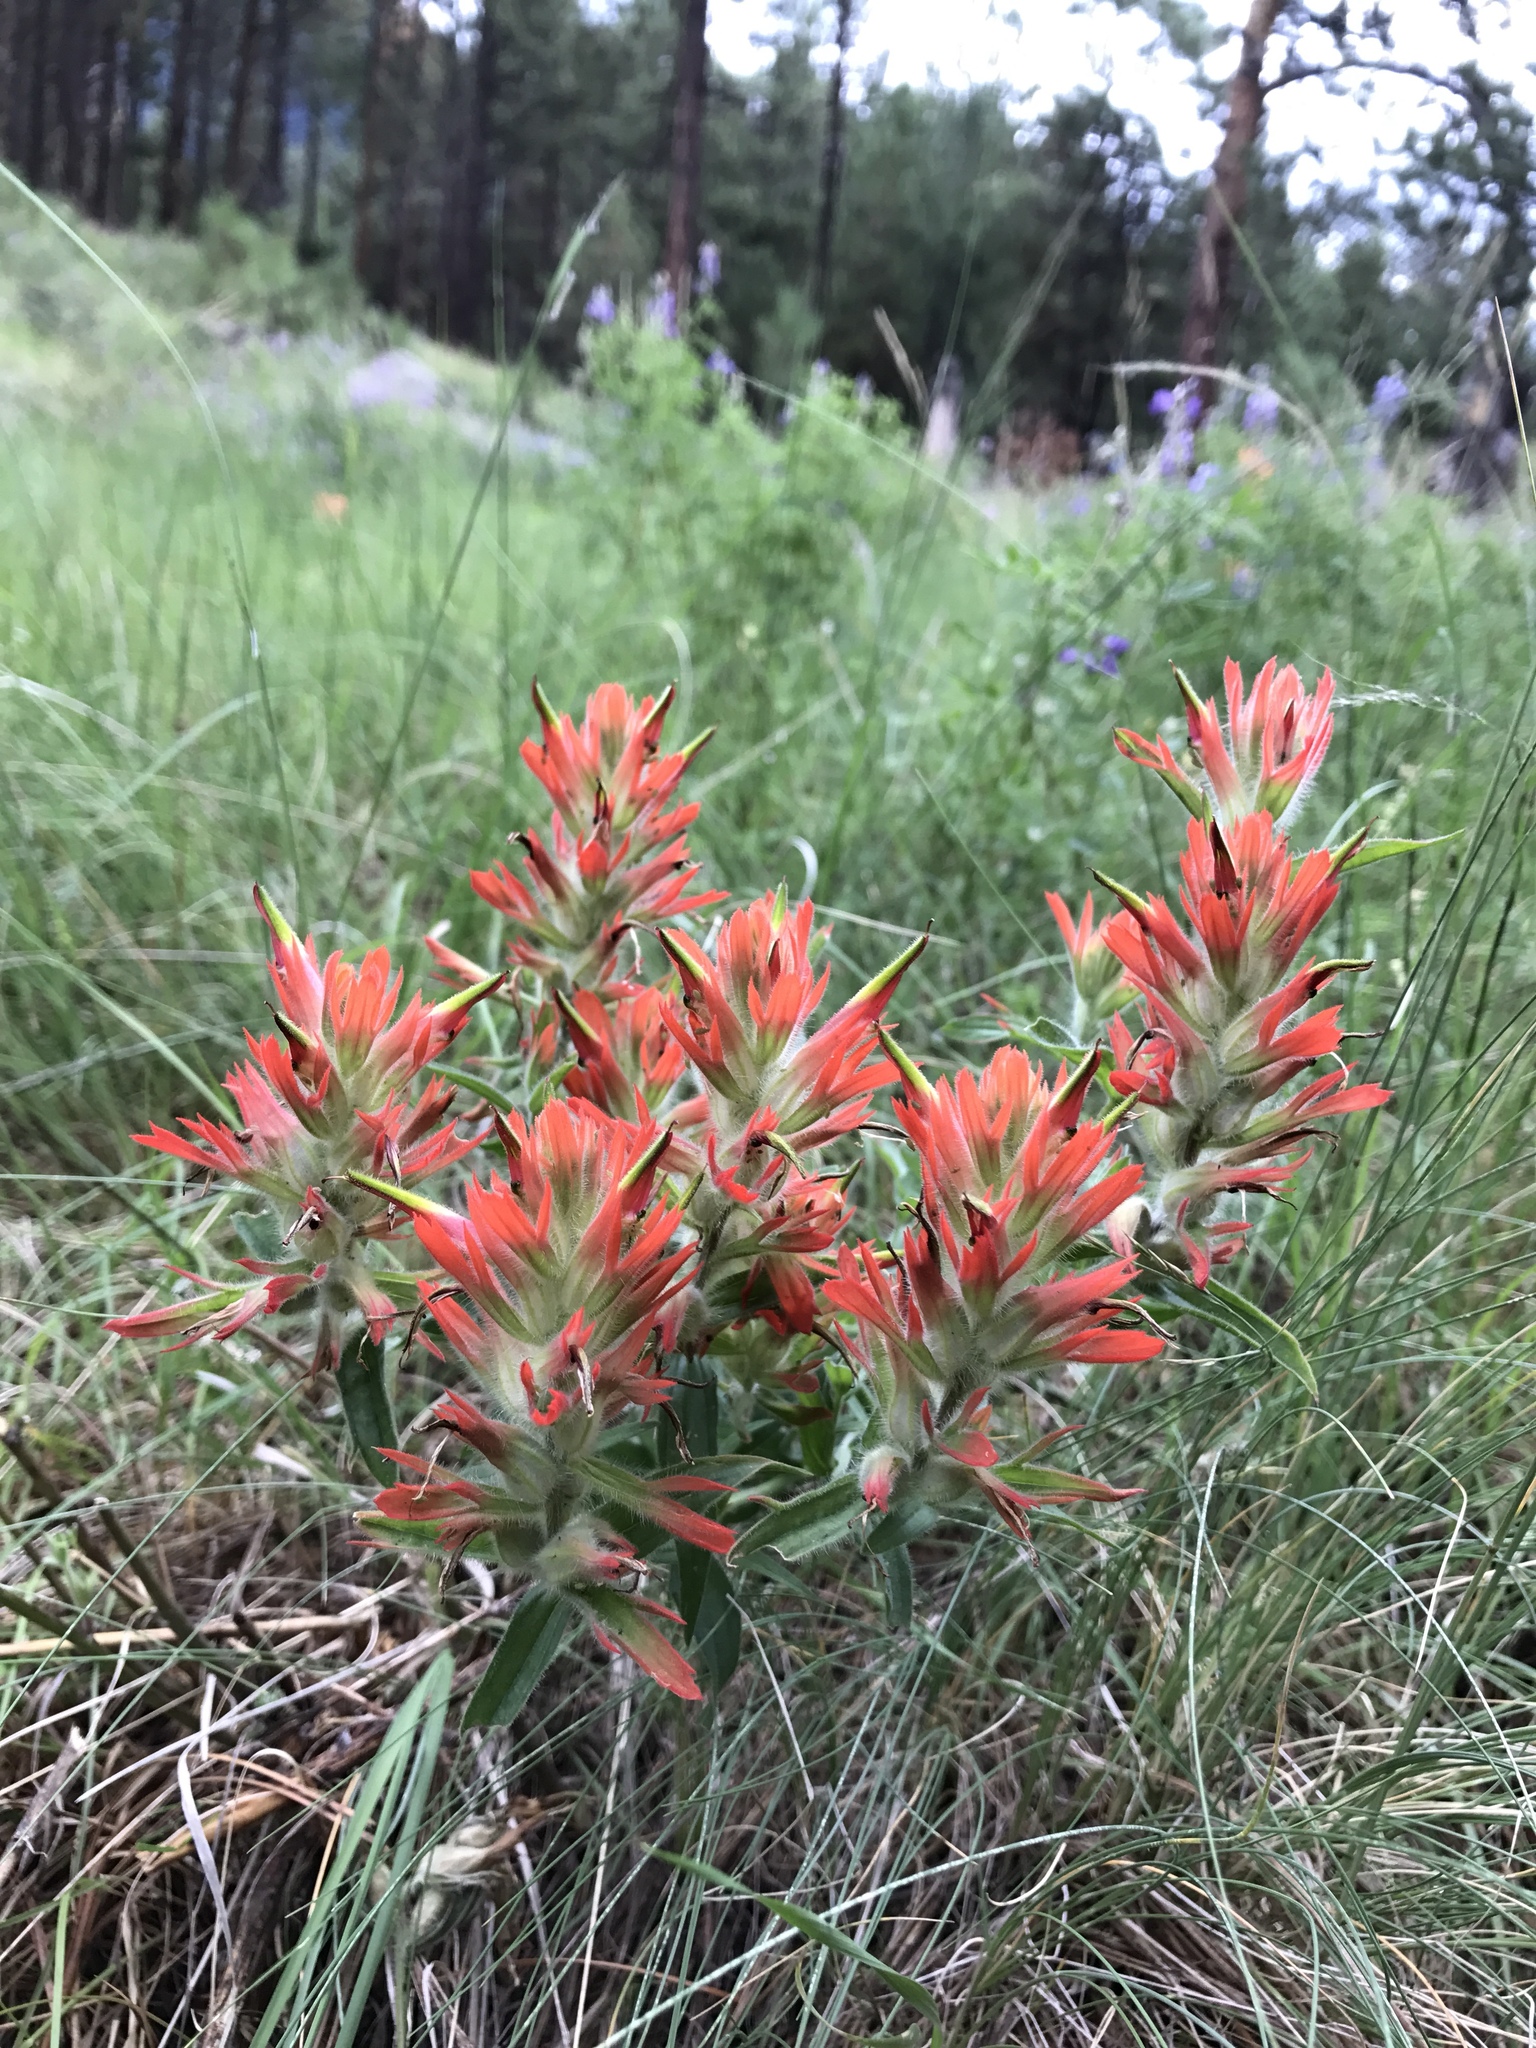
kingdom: Plantae
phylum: Tracheophyta
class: Magnoliopsida
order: Lamiales
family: Orobanchaceae
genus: Castilleja
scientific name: Castilleja miniata
